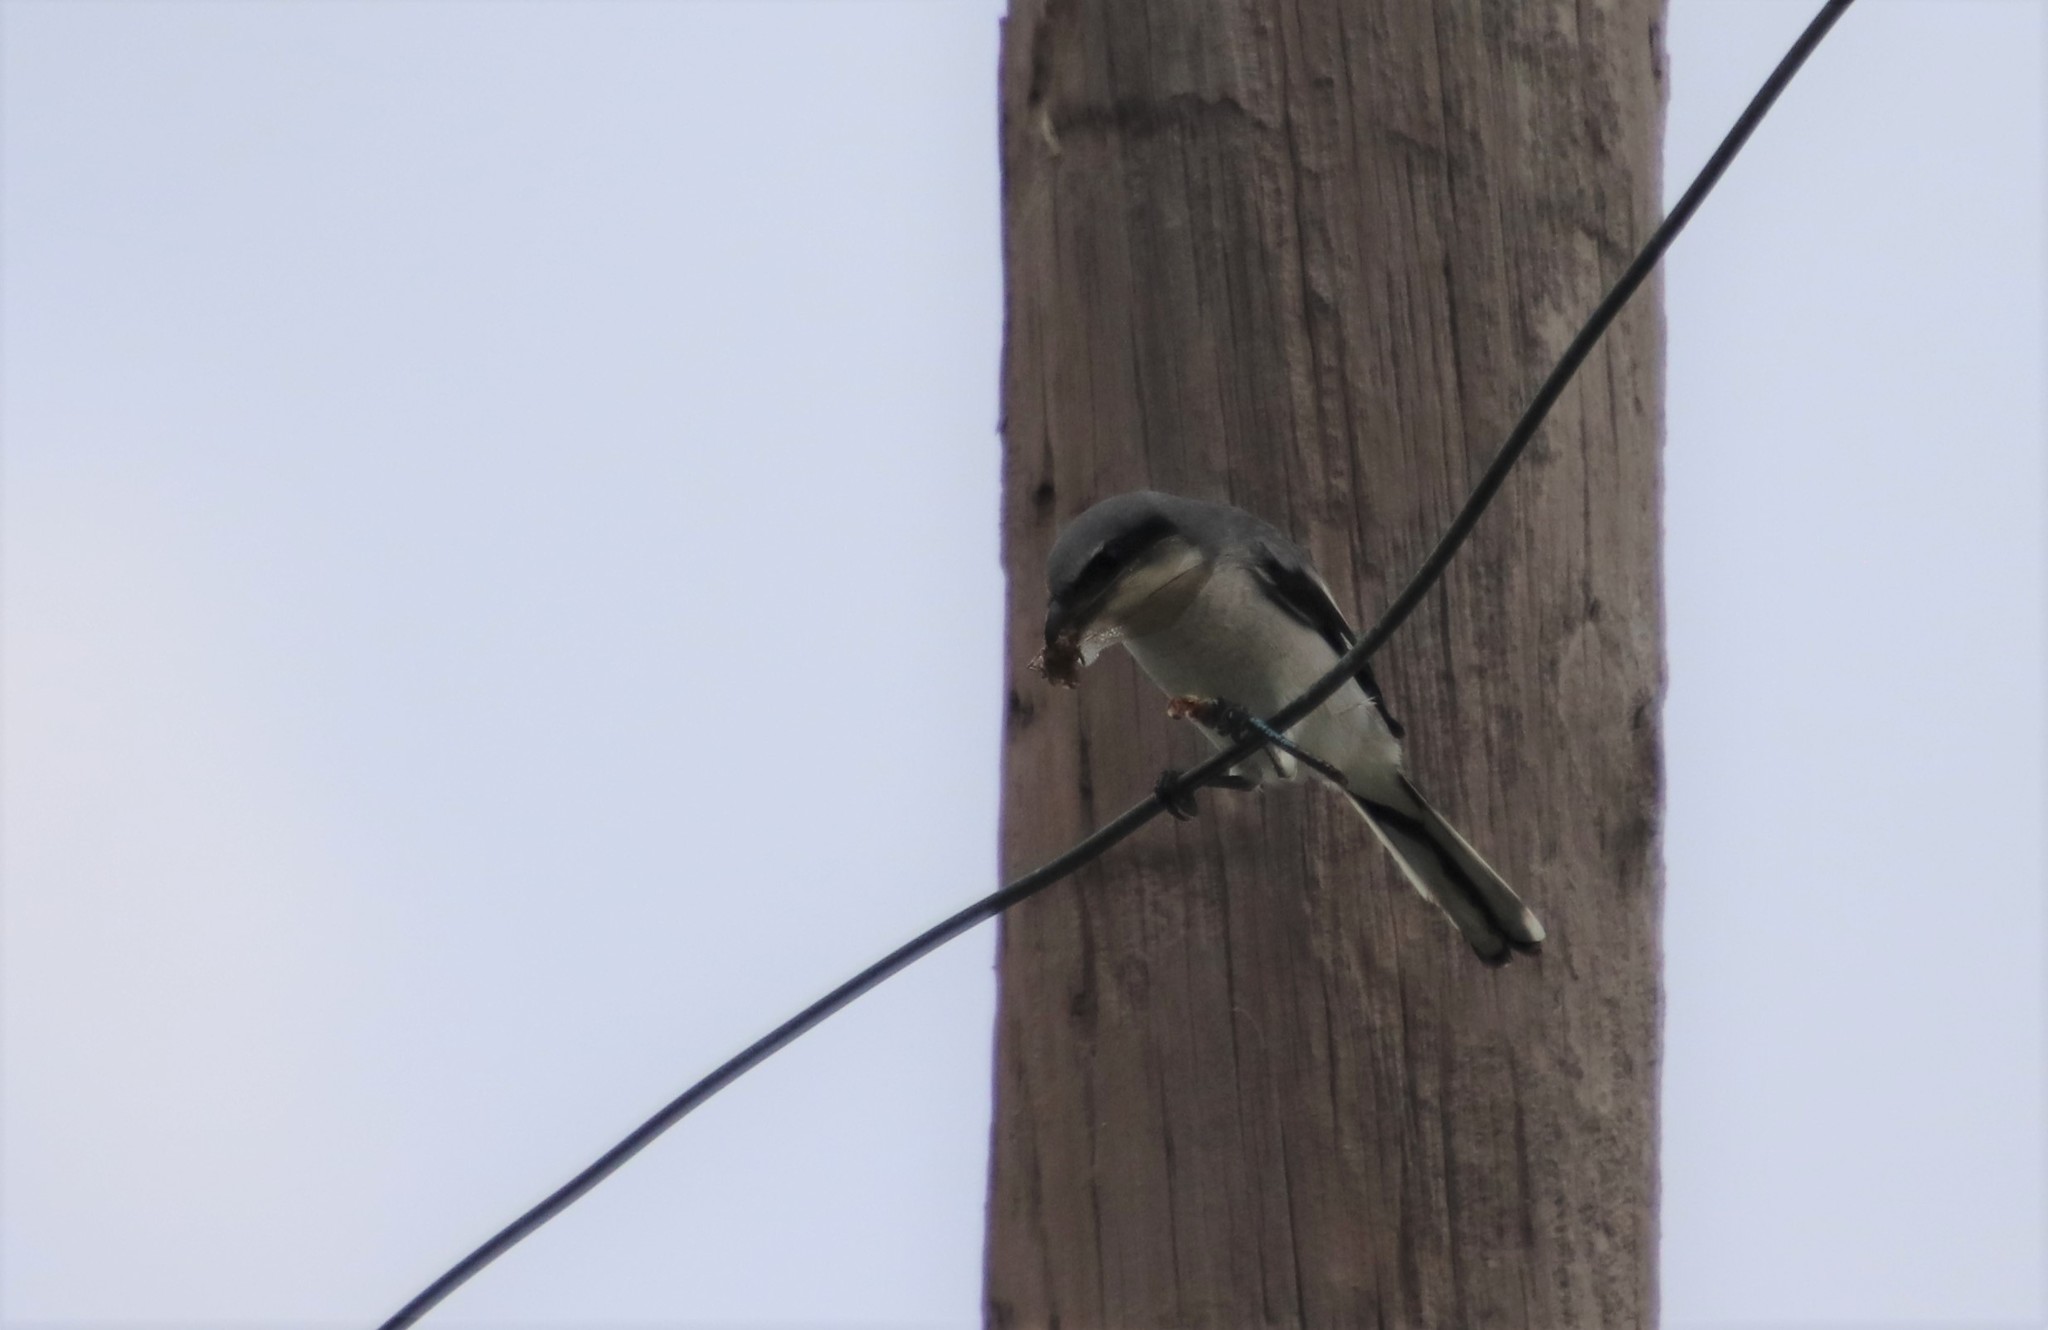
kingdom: Animalia
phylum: Chordata
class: Aves
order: Passeriformes
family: Laniidae
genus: Lanius
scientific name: Lanius ludovicianus
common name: Loggerhead shrike
